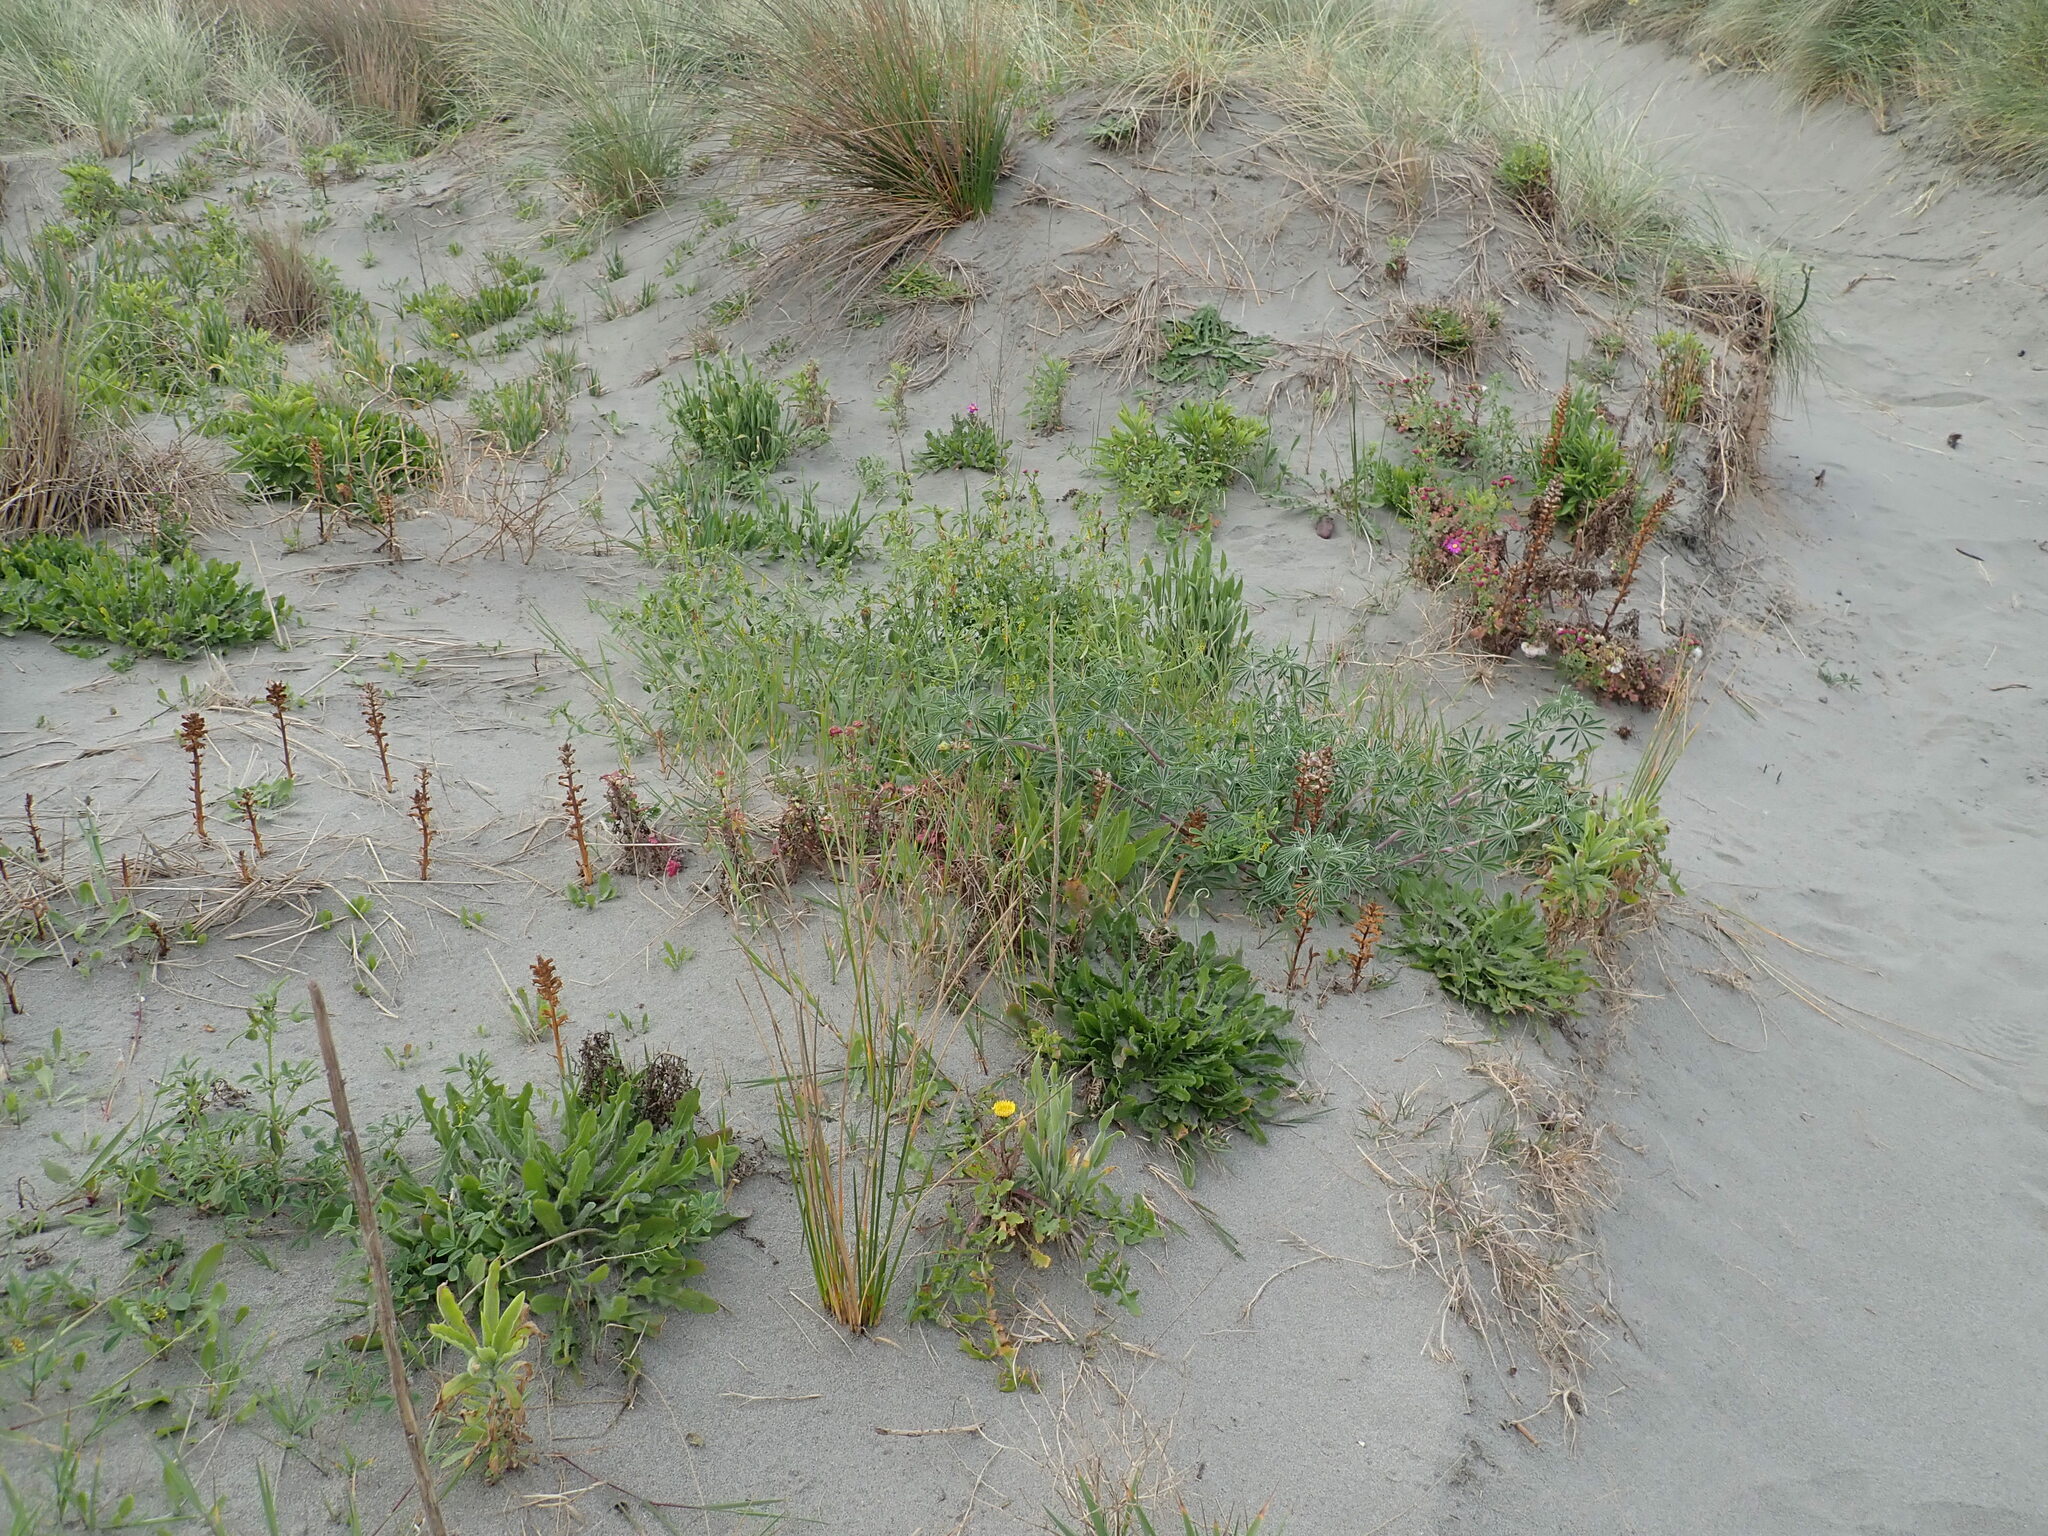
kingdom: Plantae
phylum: Tracheophyta
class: Magnoliopsida
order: Lamiales
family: Orobanchaceae
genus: Orobanche
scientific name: Orobanche minor
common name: Common broomrape
